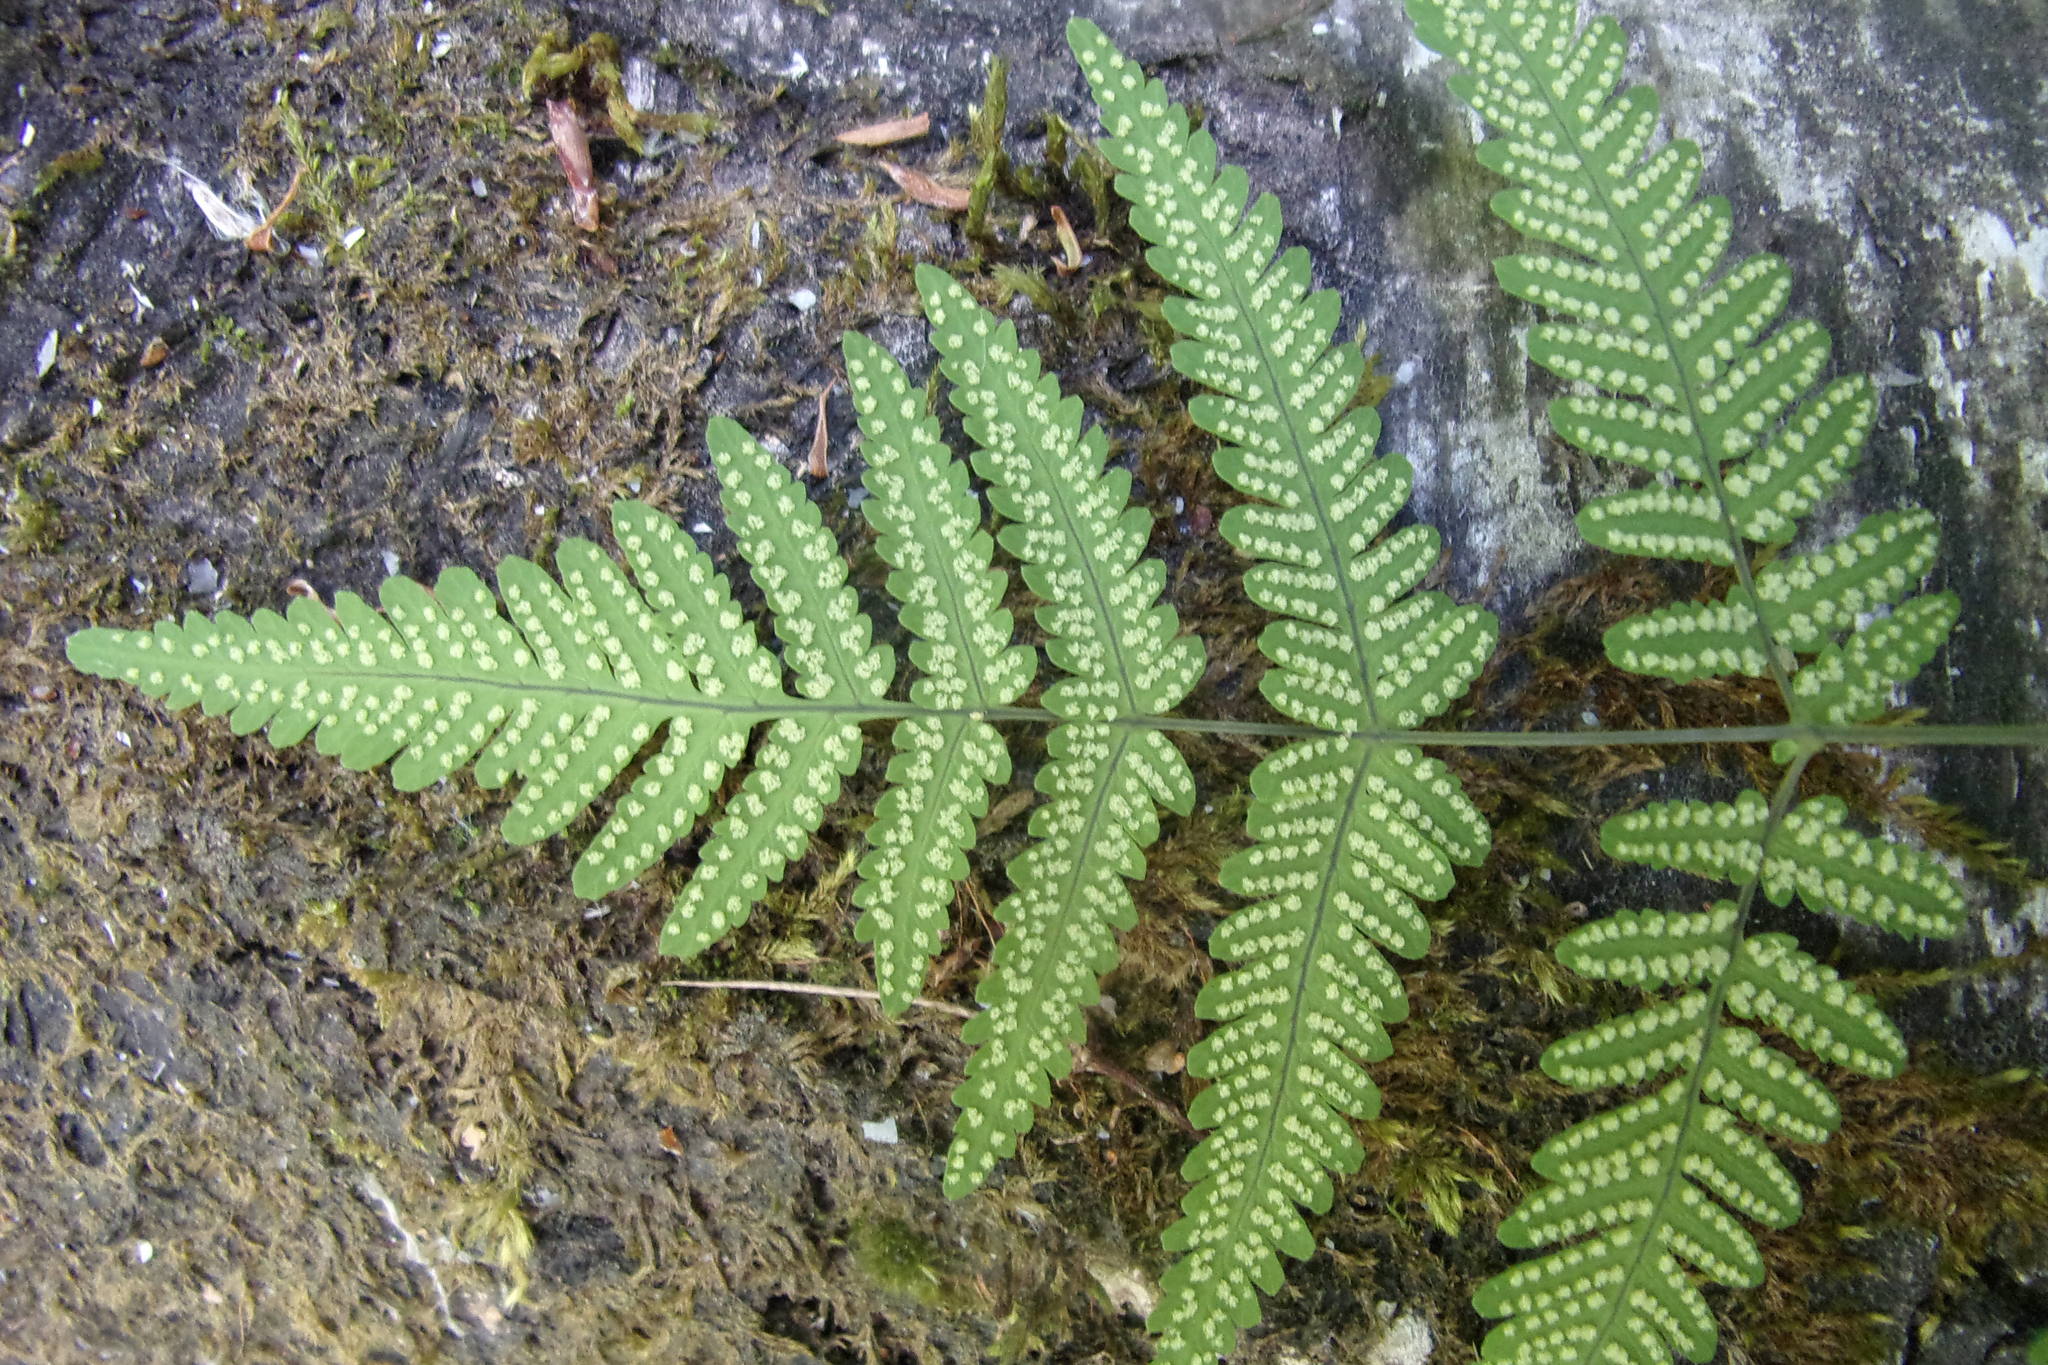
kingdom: Plantae
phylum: Tracheophyta
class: Polypodiopsida
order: Polypodiales
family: Cystopteridaceae
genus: Gymnocarpium
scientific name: Gymnocarpium dryopteris
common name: Oak fern
